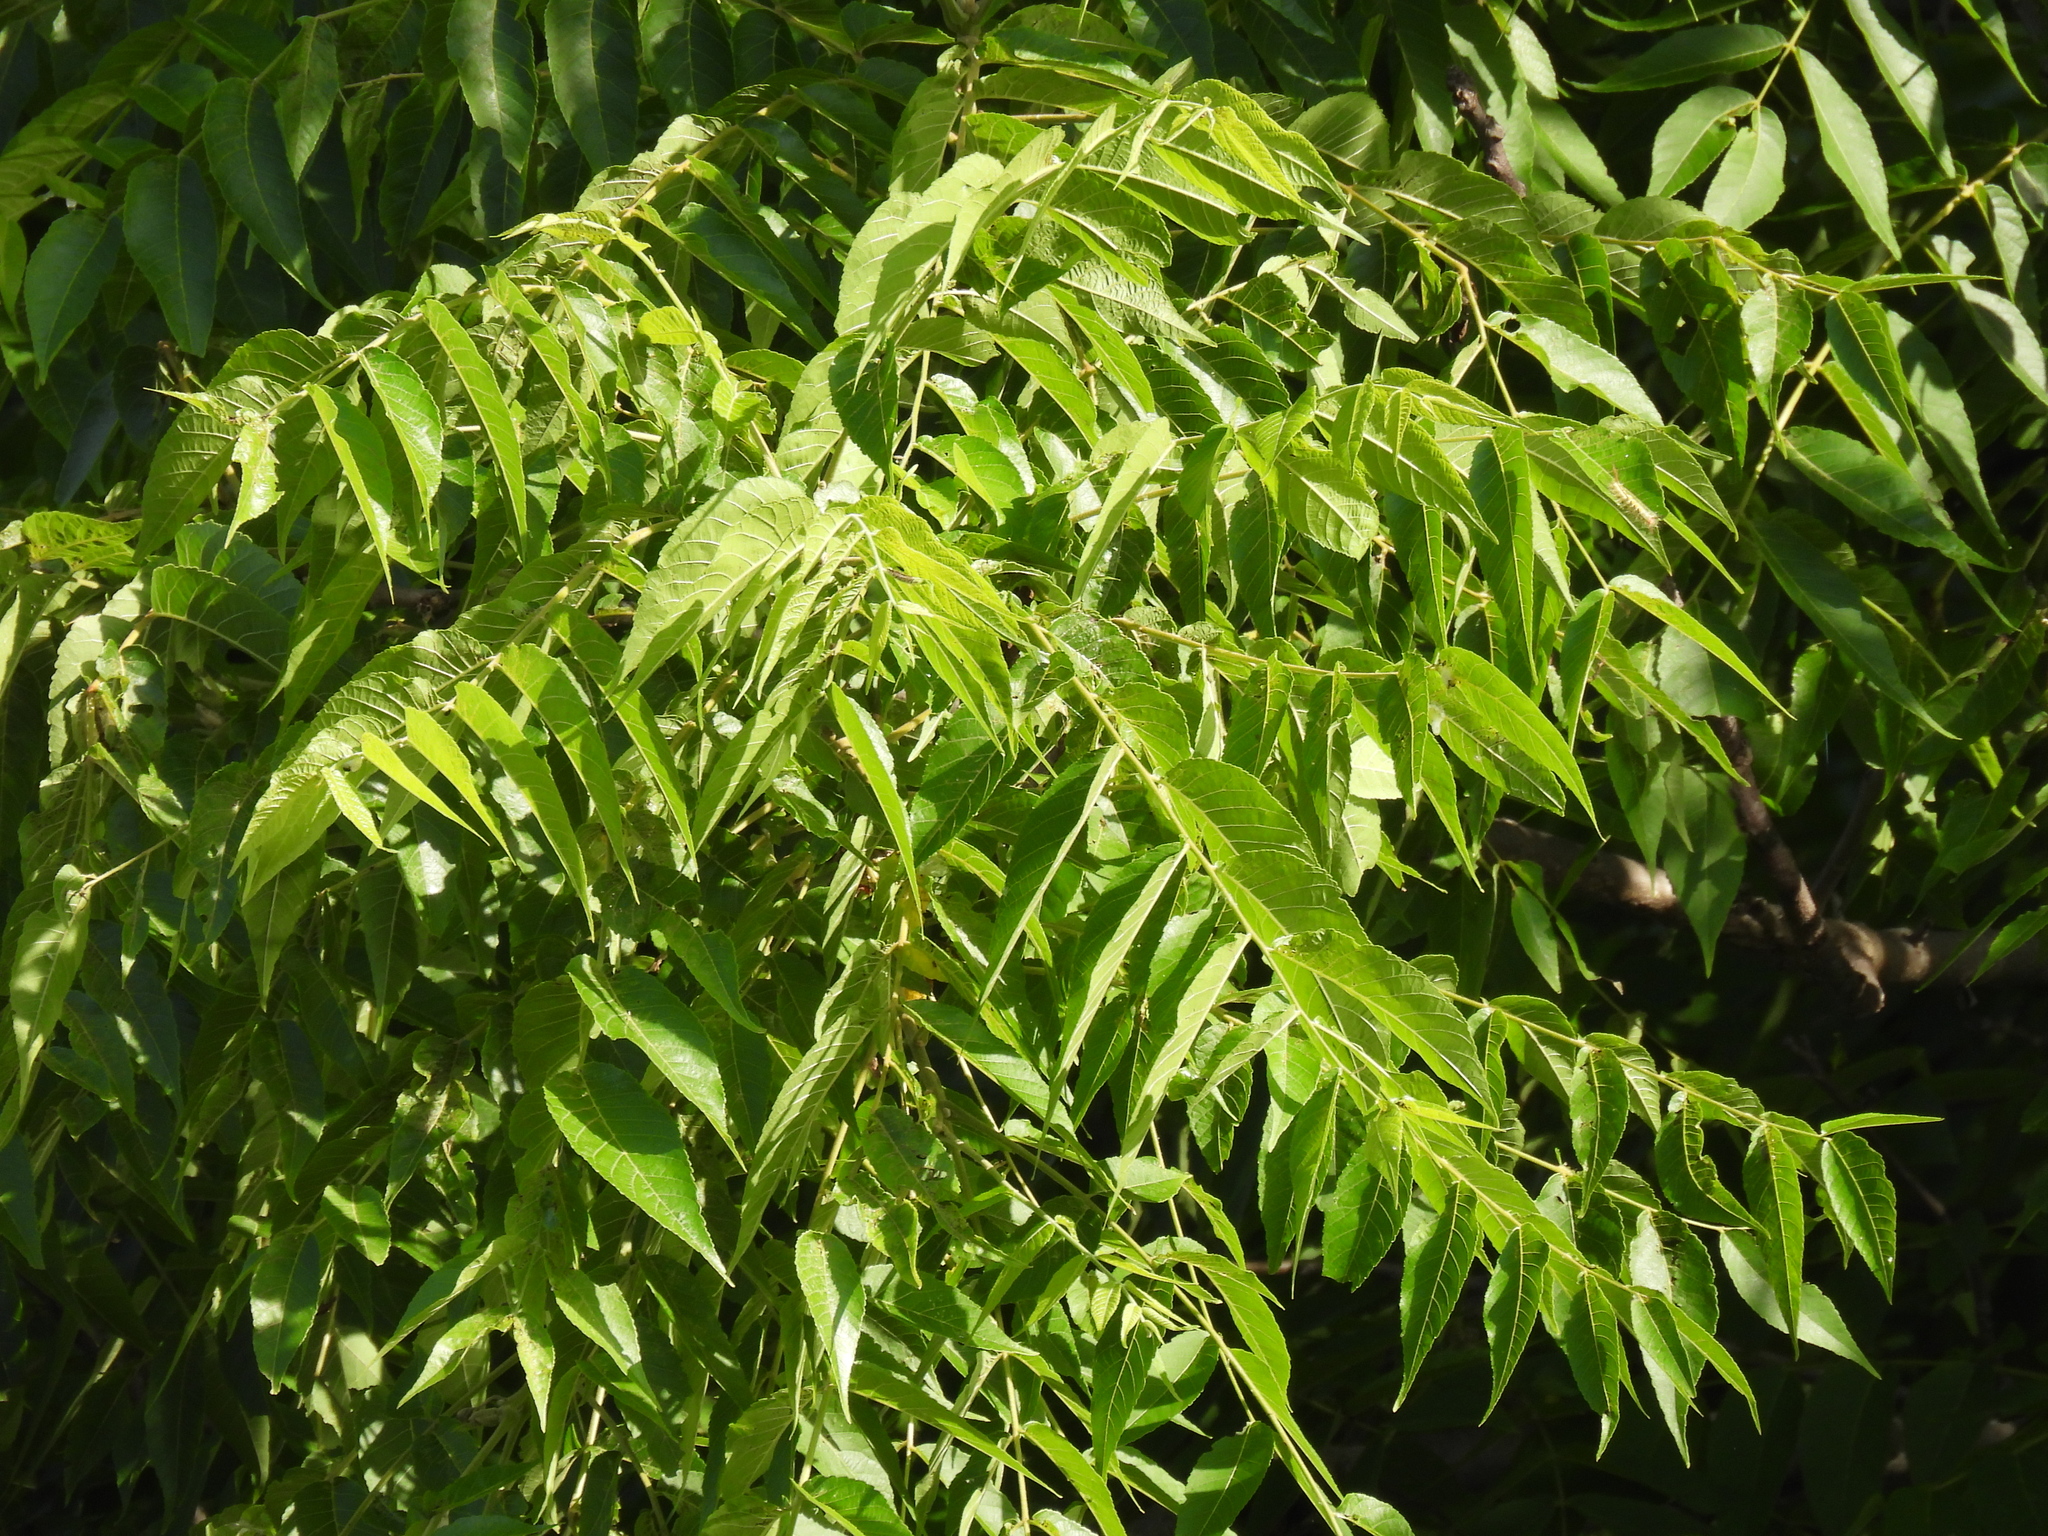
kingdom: Plantae
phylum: Tracheophyta
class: Magnoliopsida
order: Fagales
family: Juglandaceae
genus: Juglans
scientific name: Juglans nigra
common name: Black walnut
